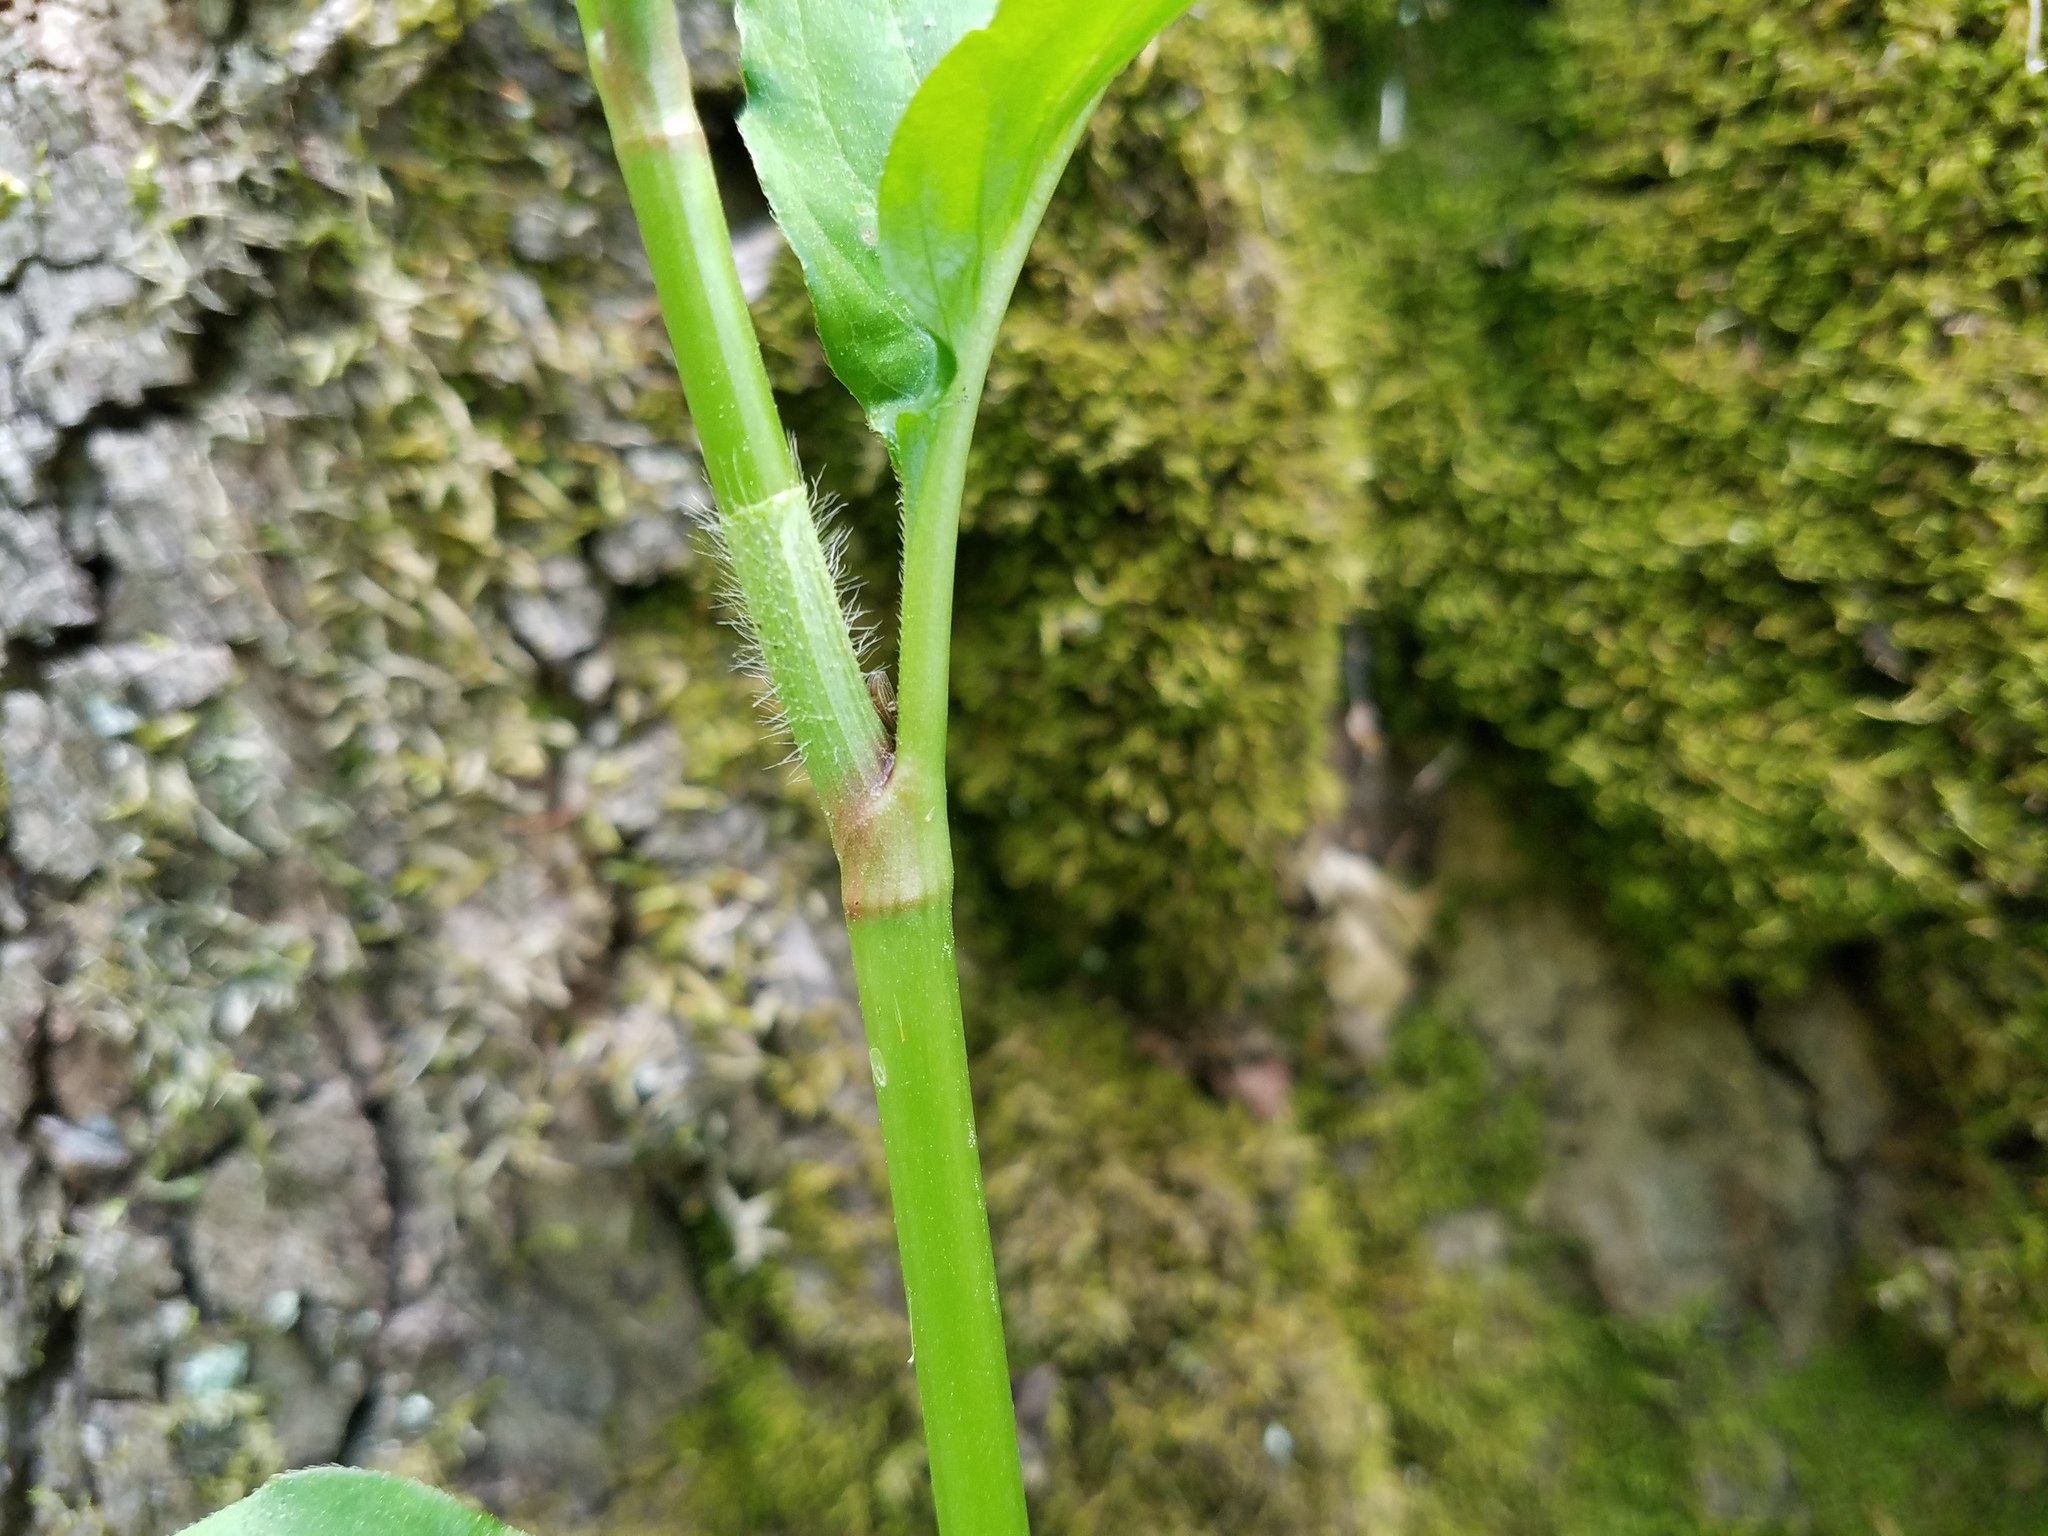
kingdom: Plantae
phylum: Tracheophyta
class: Magnoliopsida
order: Caryophyllales
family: Polygonaceae
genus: Persicaria
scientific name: Persicaria virginiana
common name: Jumpseed
